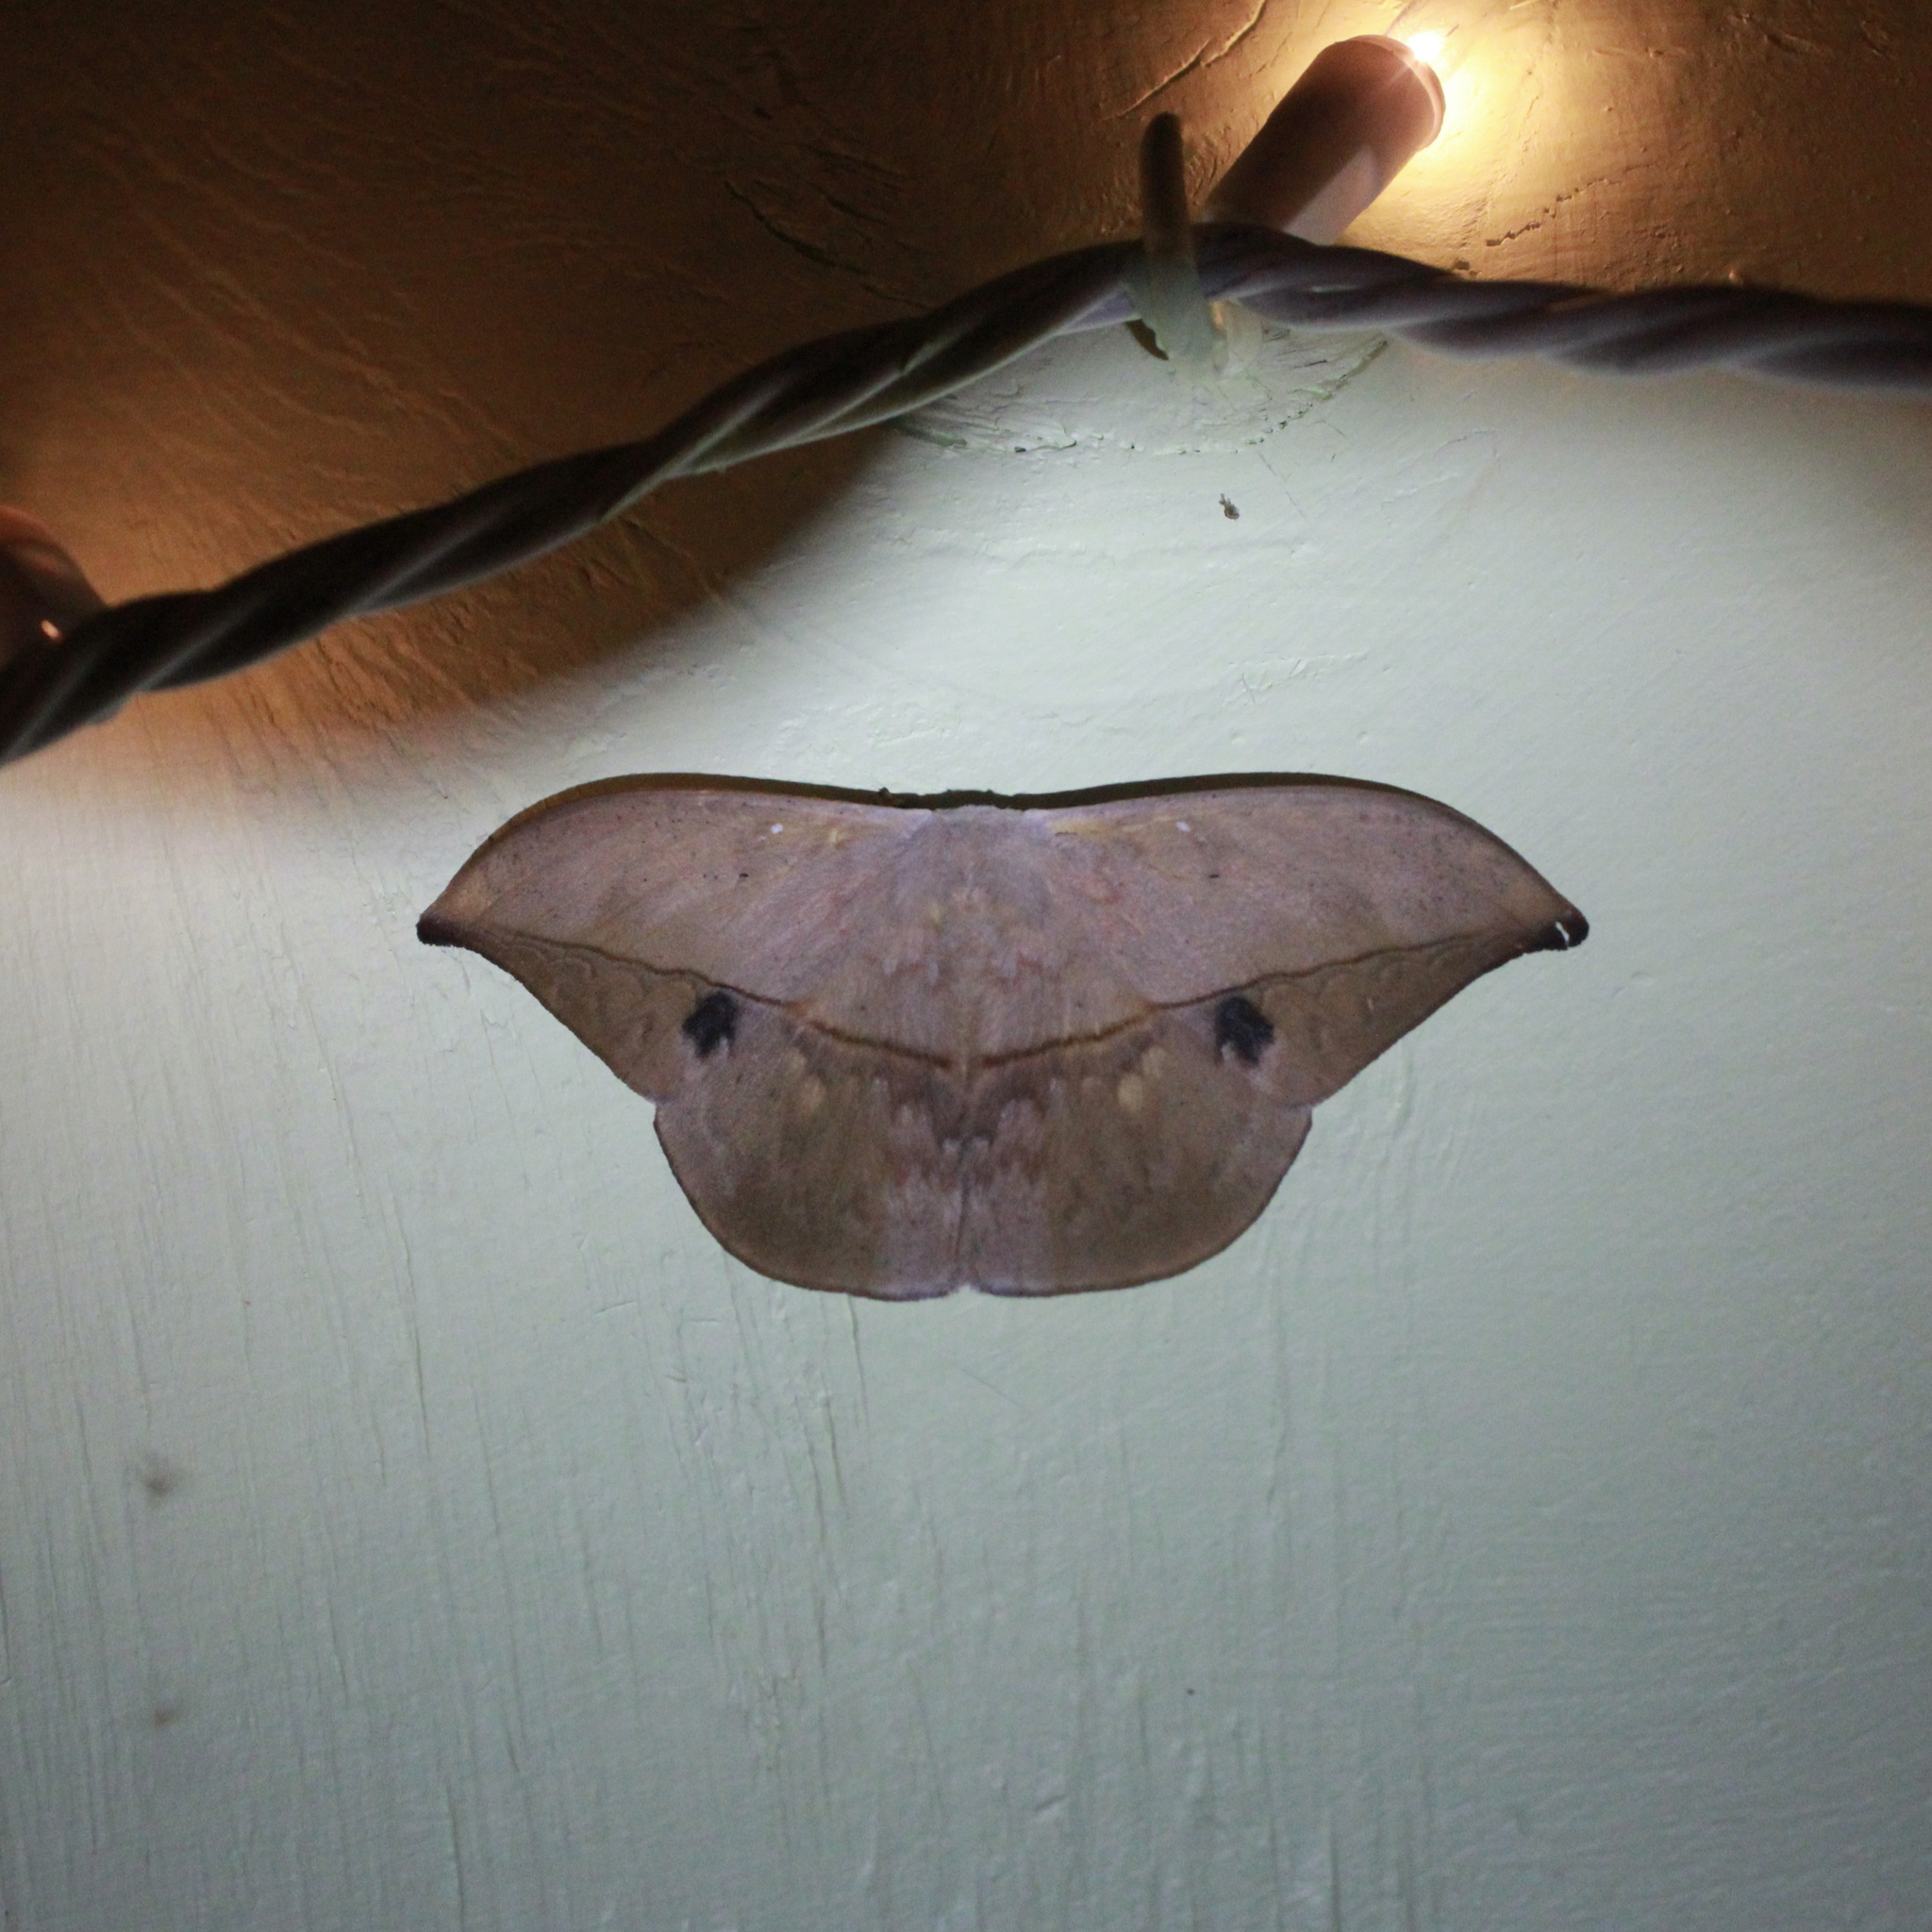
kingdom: Animalia
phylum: Arthropoda
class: Insecta
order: Lepidoptera
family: Saturniidae
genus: Oxytenis
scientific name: Oxytenis modestia
